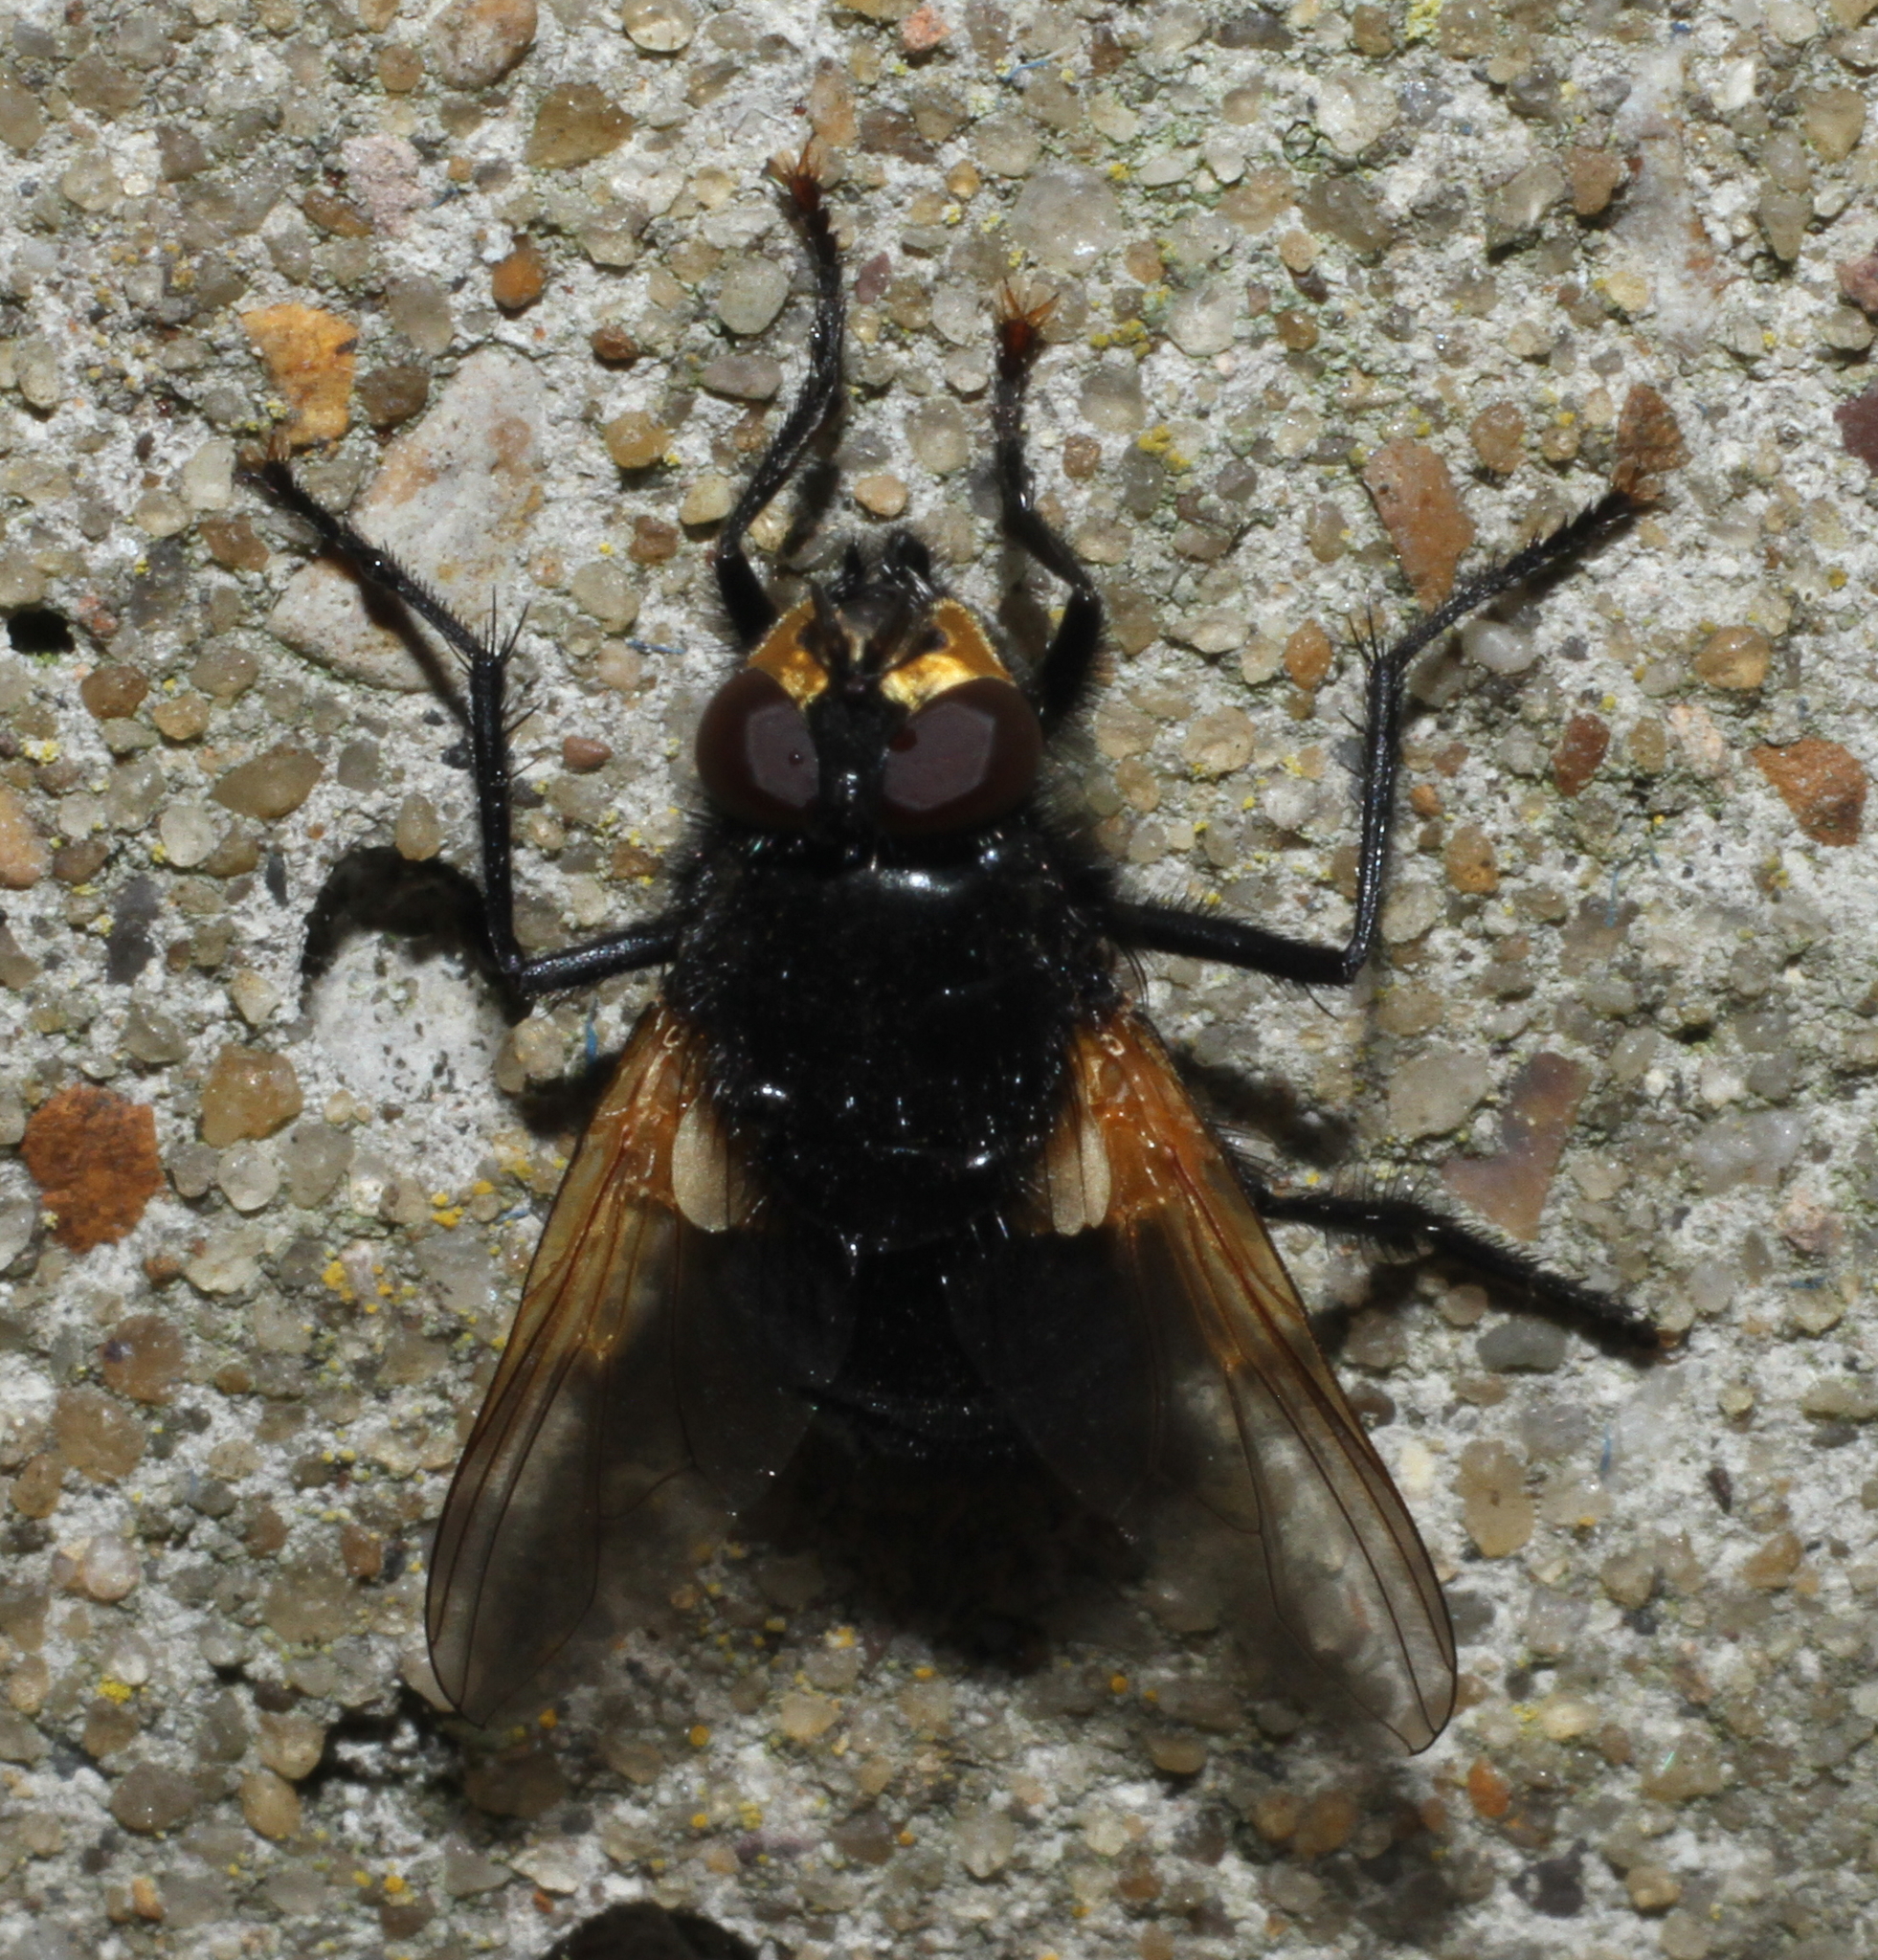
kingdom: Animalia
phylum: Arthropoda
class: Insecta
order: Diptera
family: Muscidae
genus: Mesembrina
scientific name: Mesembrina meridiana
